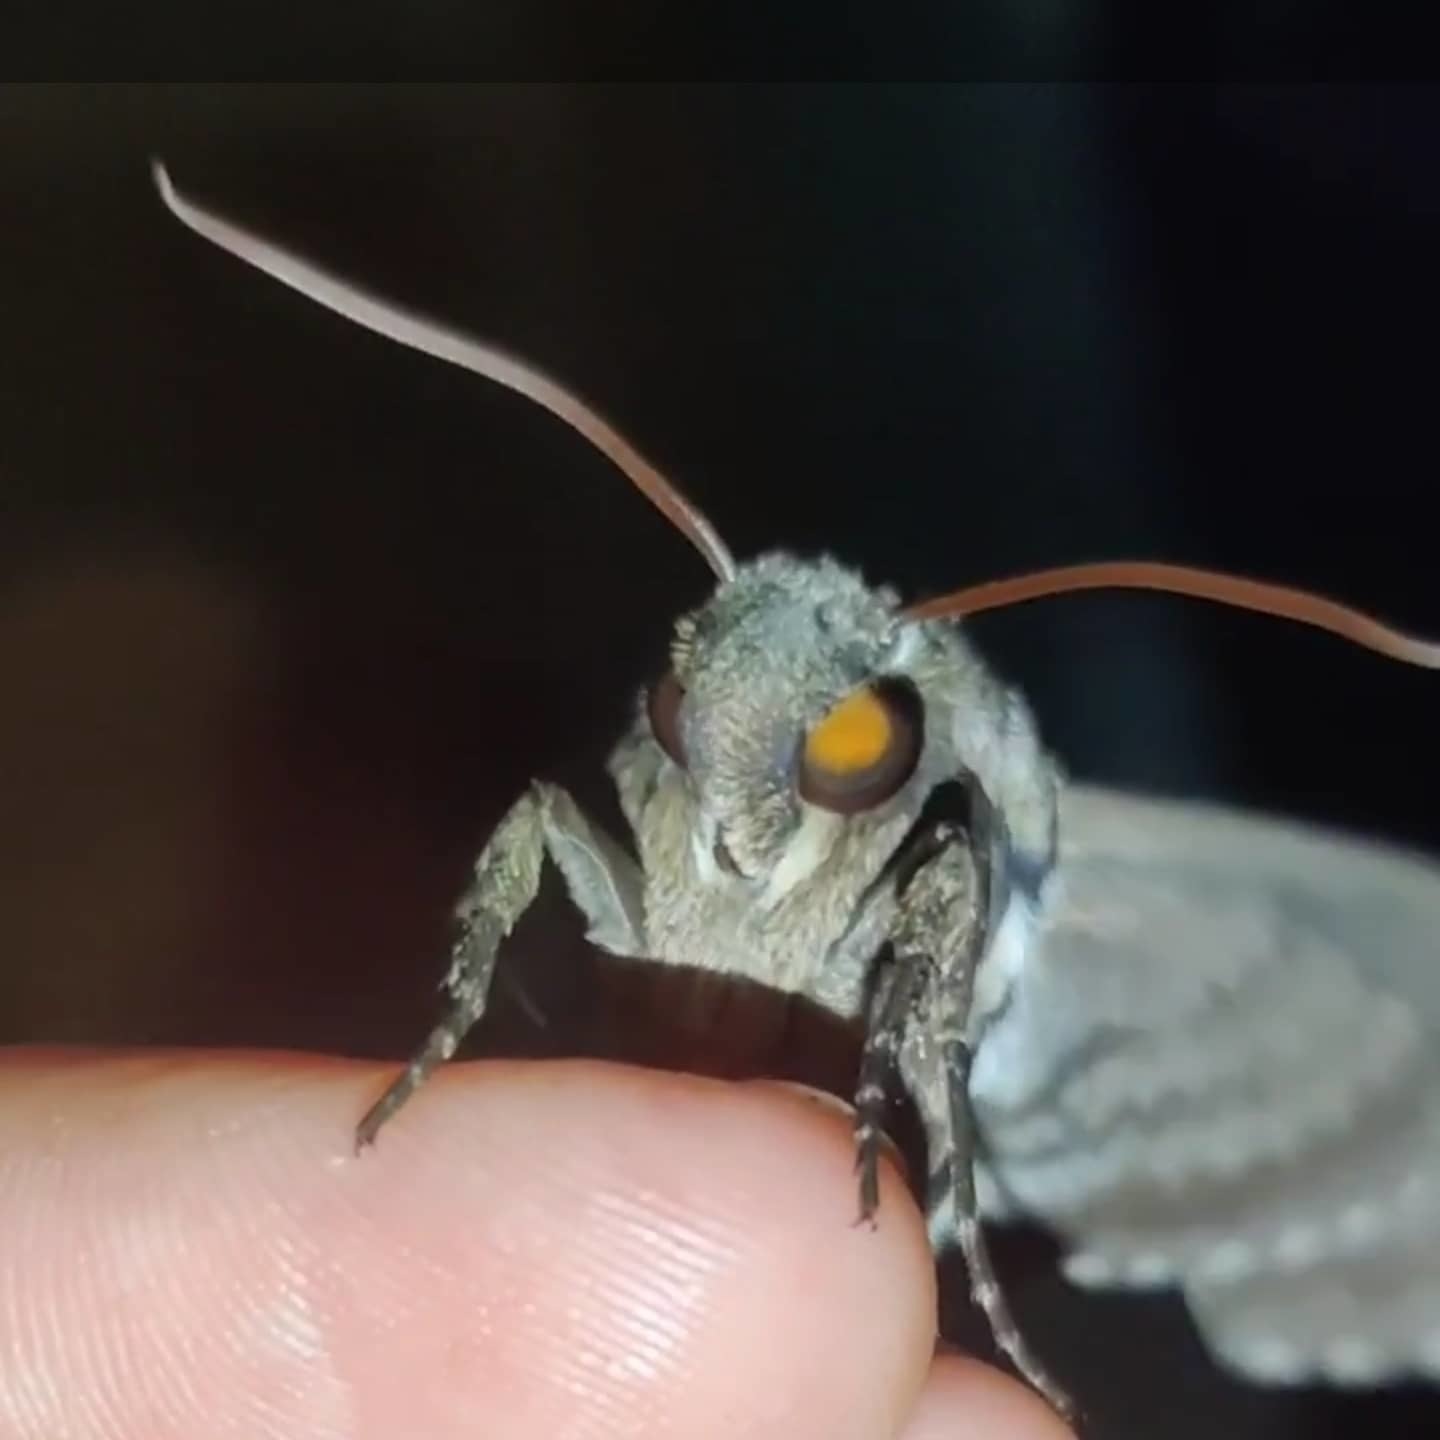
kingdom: Animalia
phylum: Arthropoda
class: Insecta
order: Lepidoptera
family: Sphingidae
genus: Manduca
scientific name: Manduca sexta
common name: Carolina sphinx
